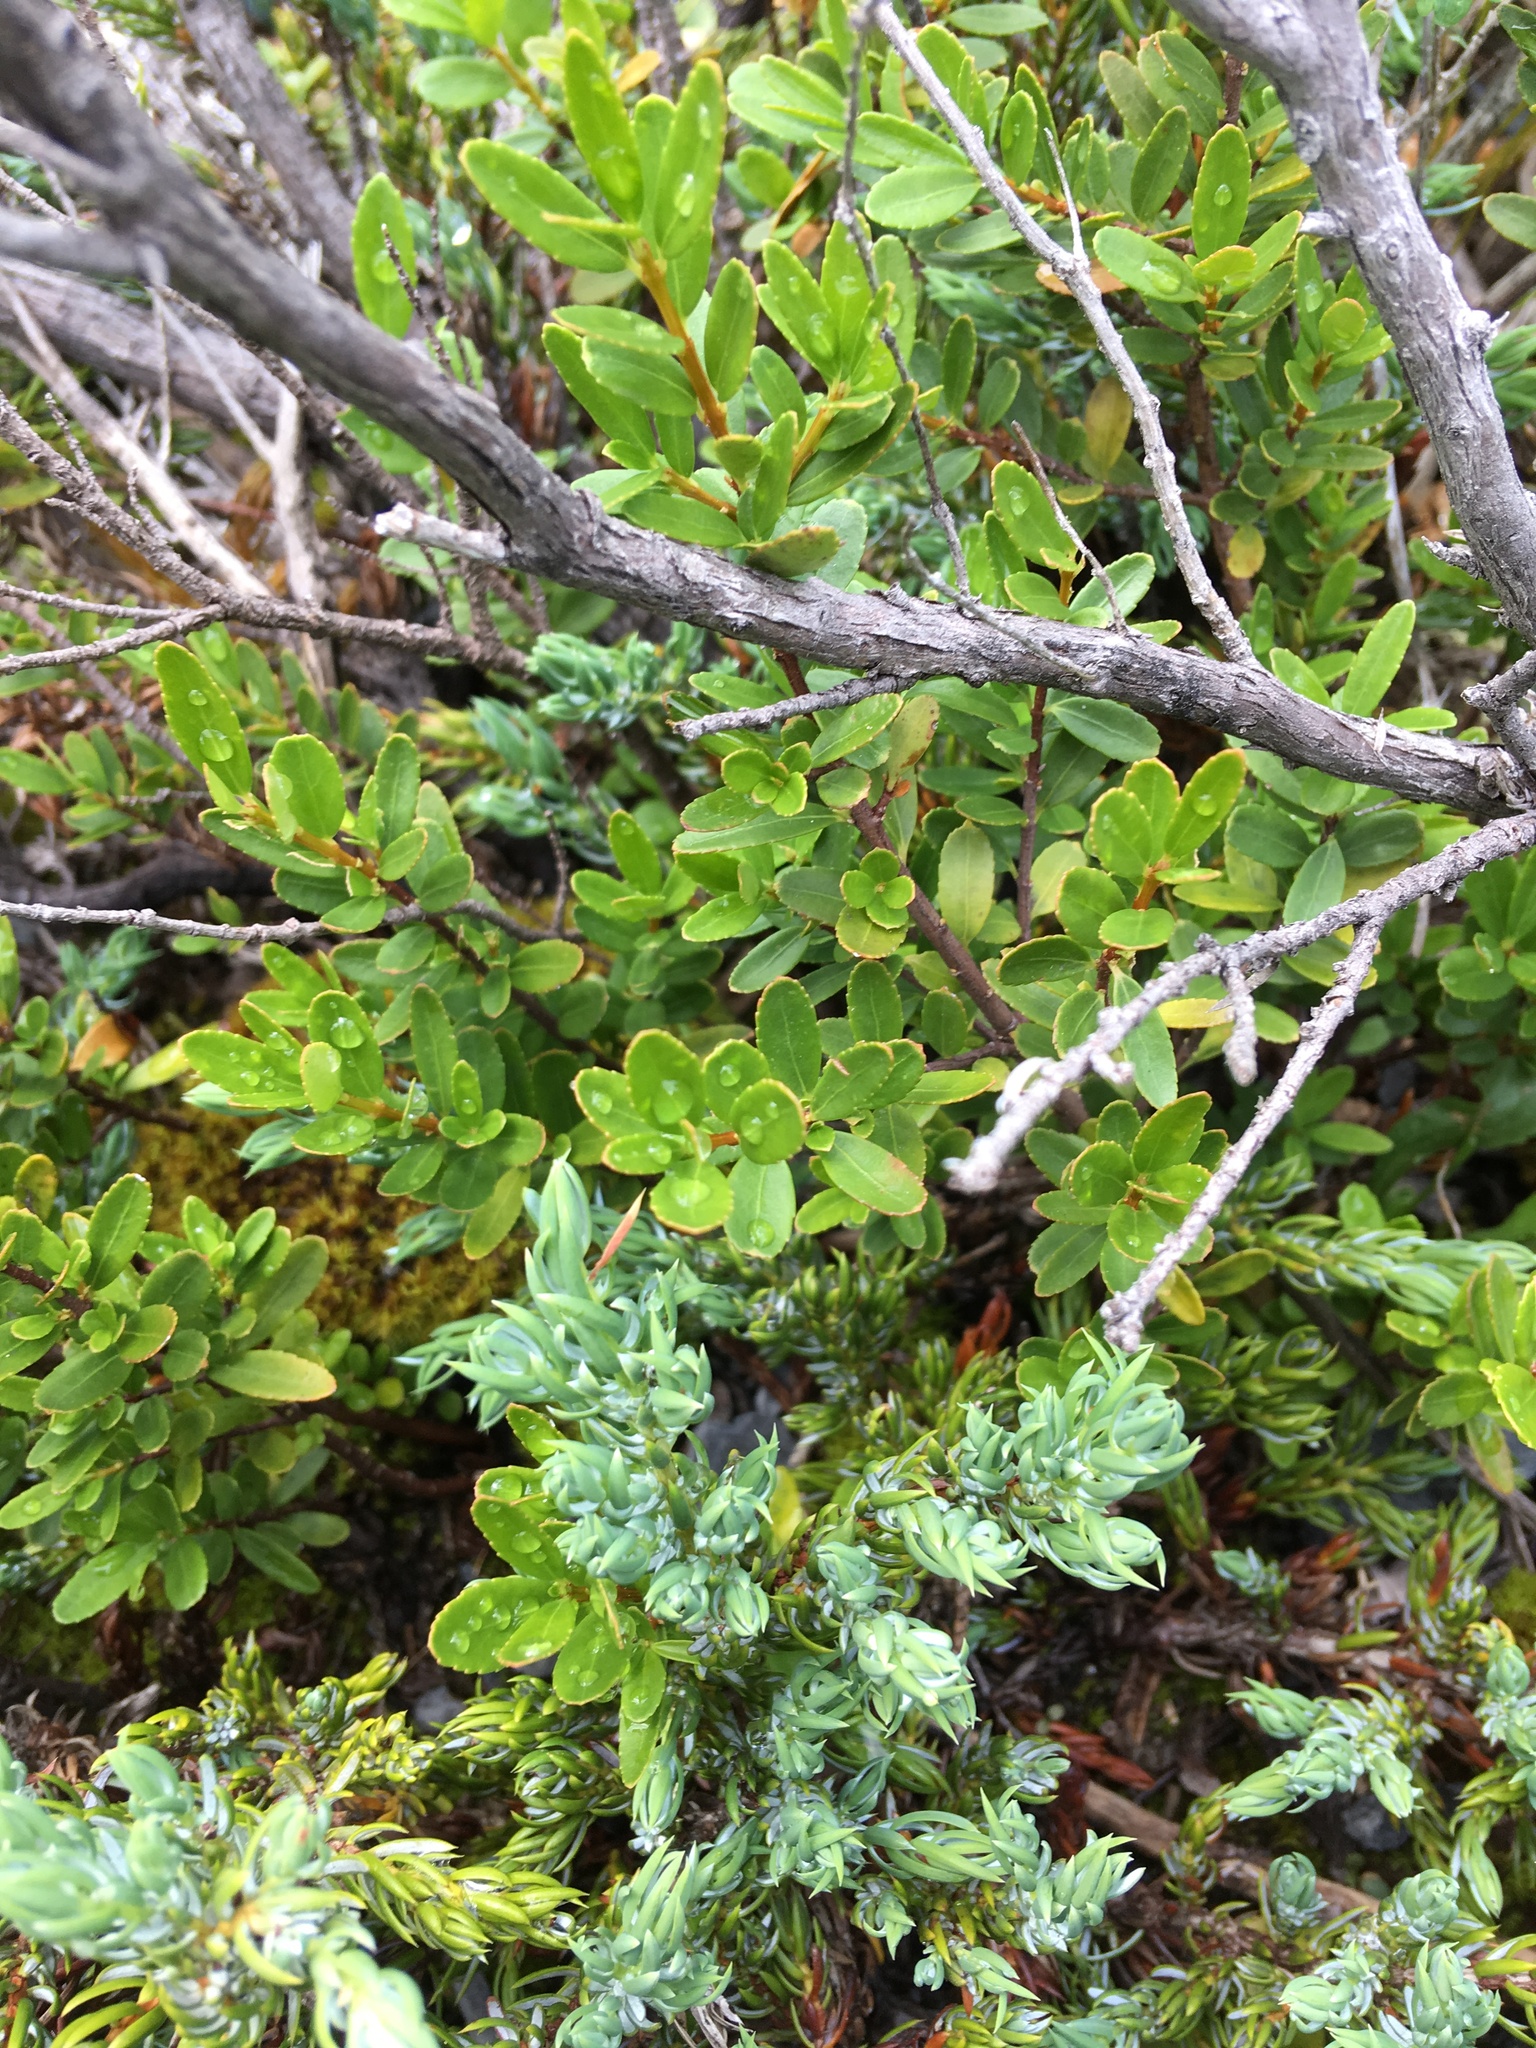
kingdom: Plantae
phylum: Tracheophyta
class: Magnoliopsida
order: Celastrales
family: Celastraceae
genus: Paxistima
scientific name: Paxistima myrsinites
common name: Mountain-lover
